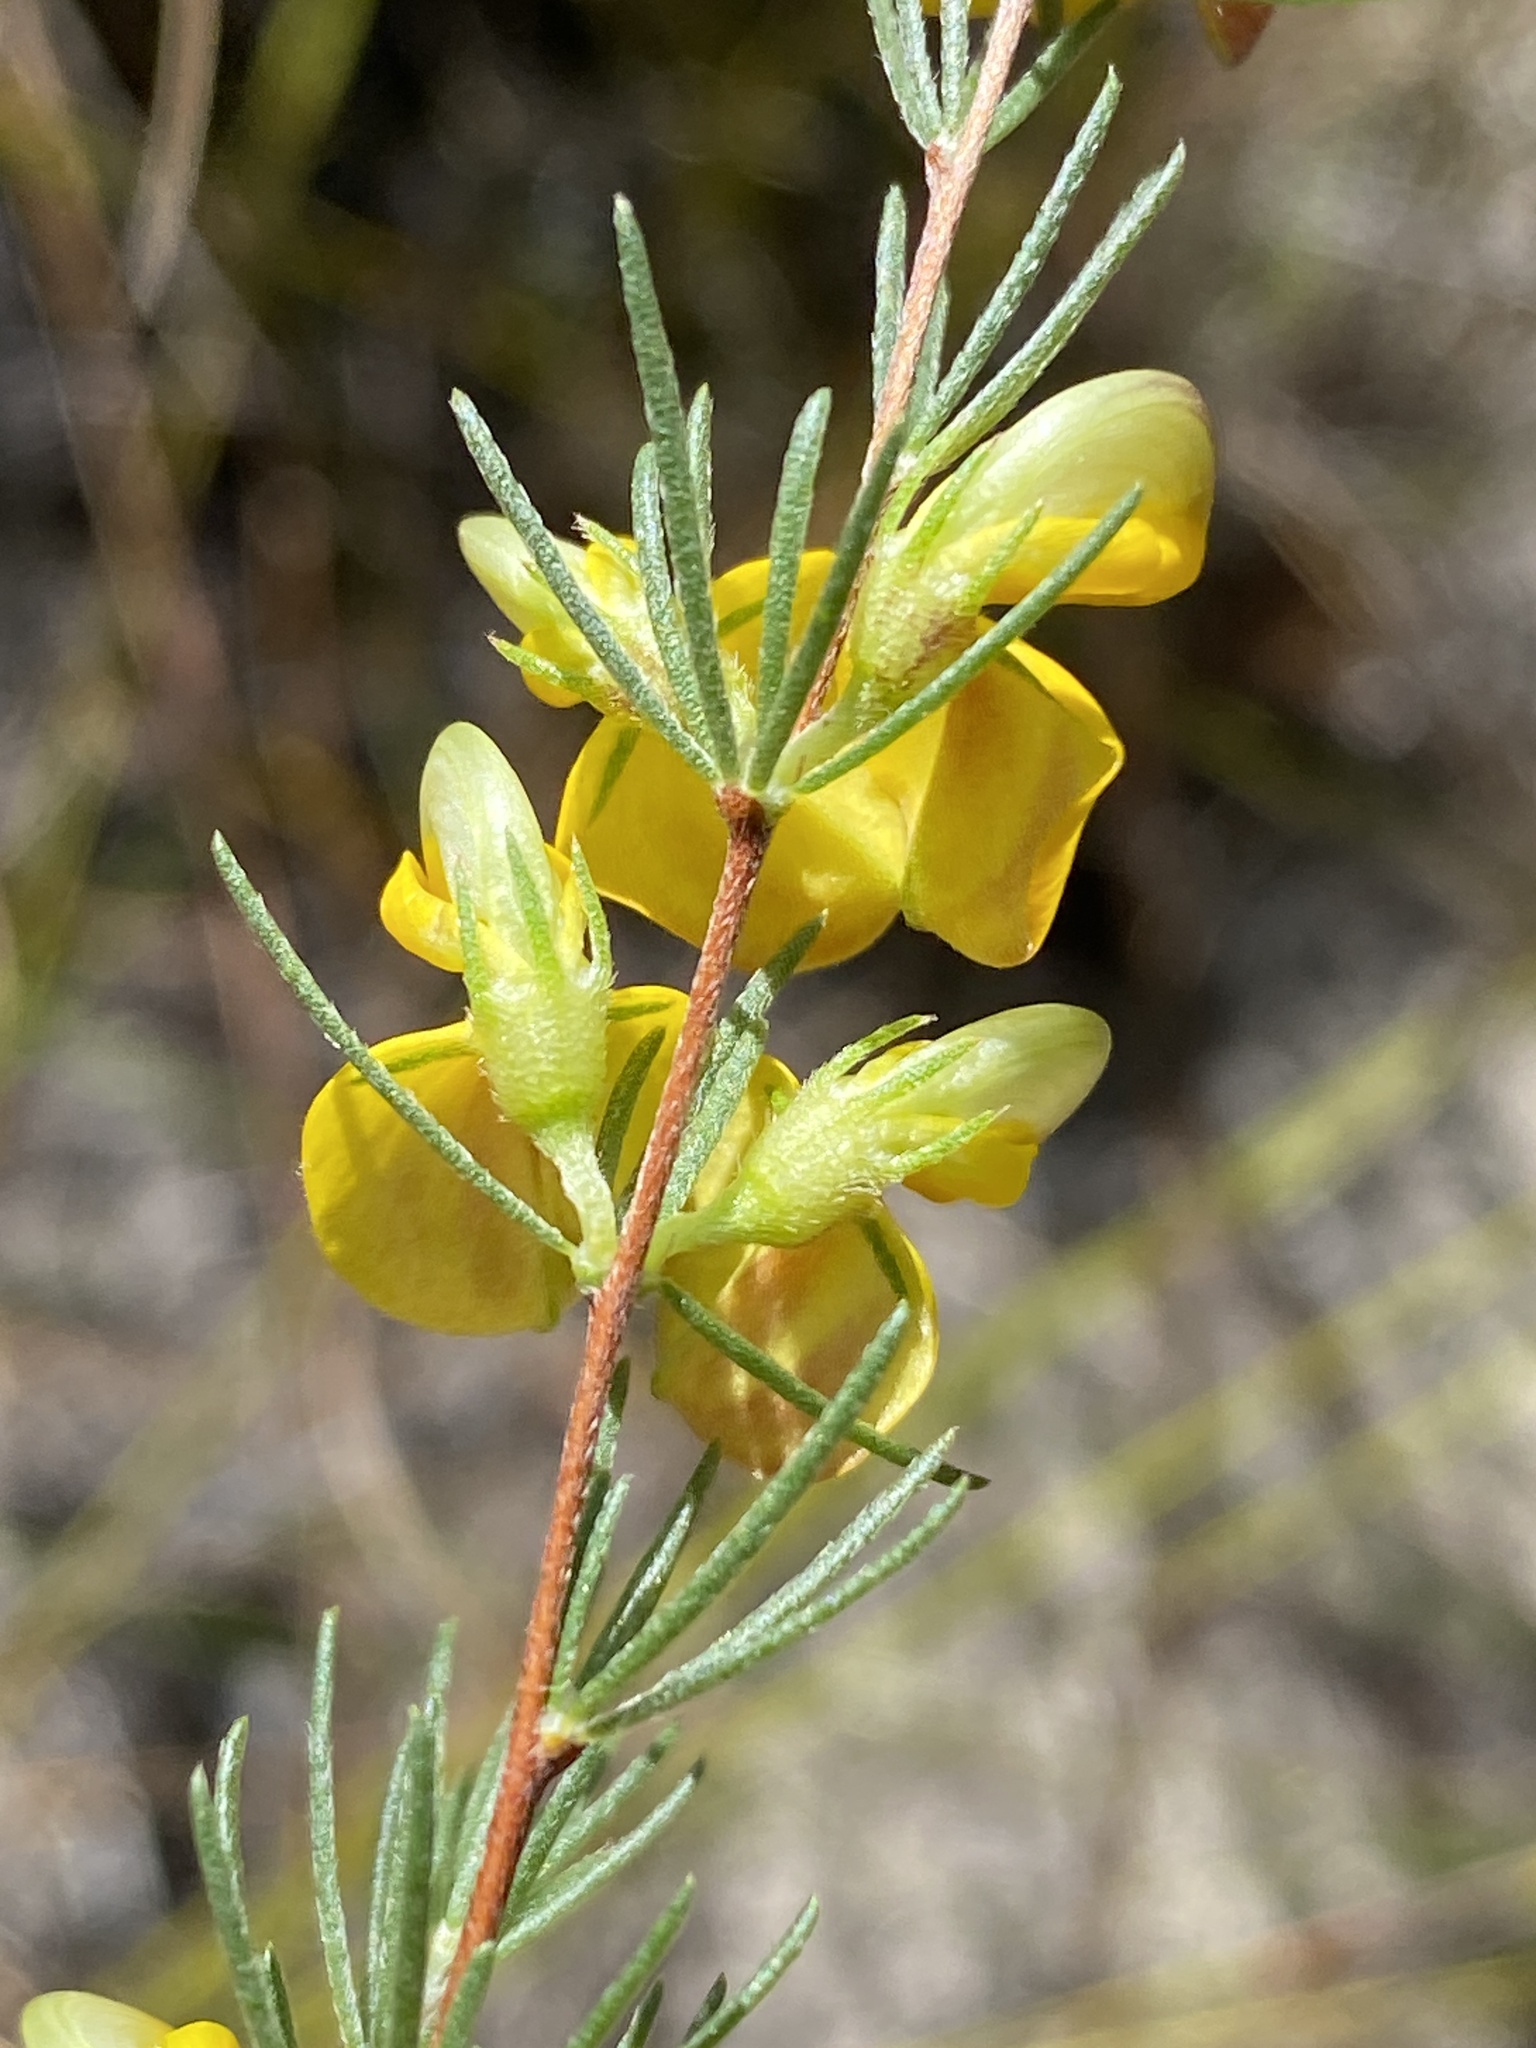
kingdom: Plantae
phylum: Tracheophyta
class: Magnoliopsida
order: Fabales
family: Fabaceae
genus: Aspalathus
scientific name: Aspalathus filicaulis
